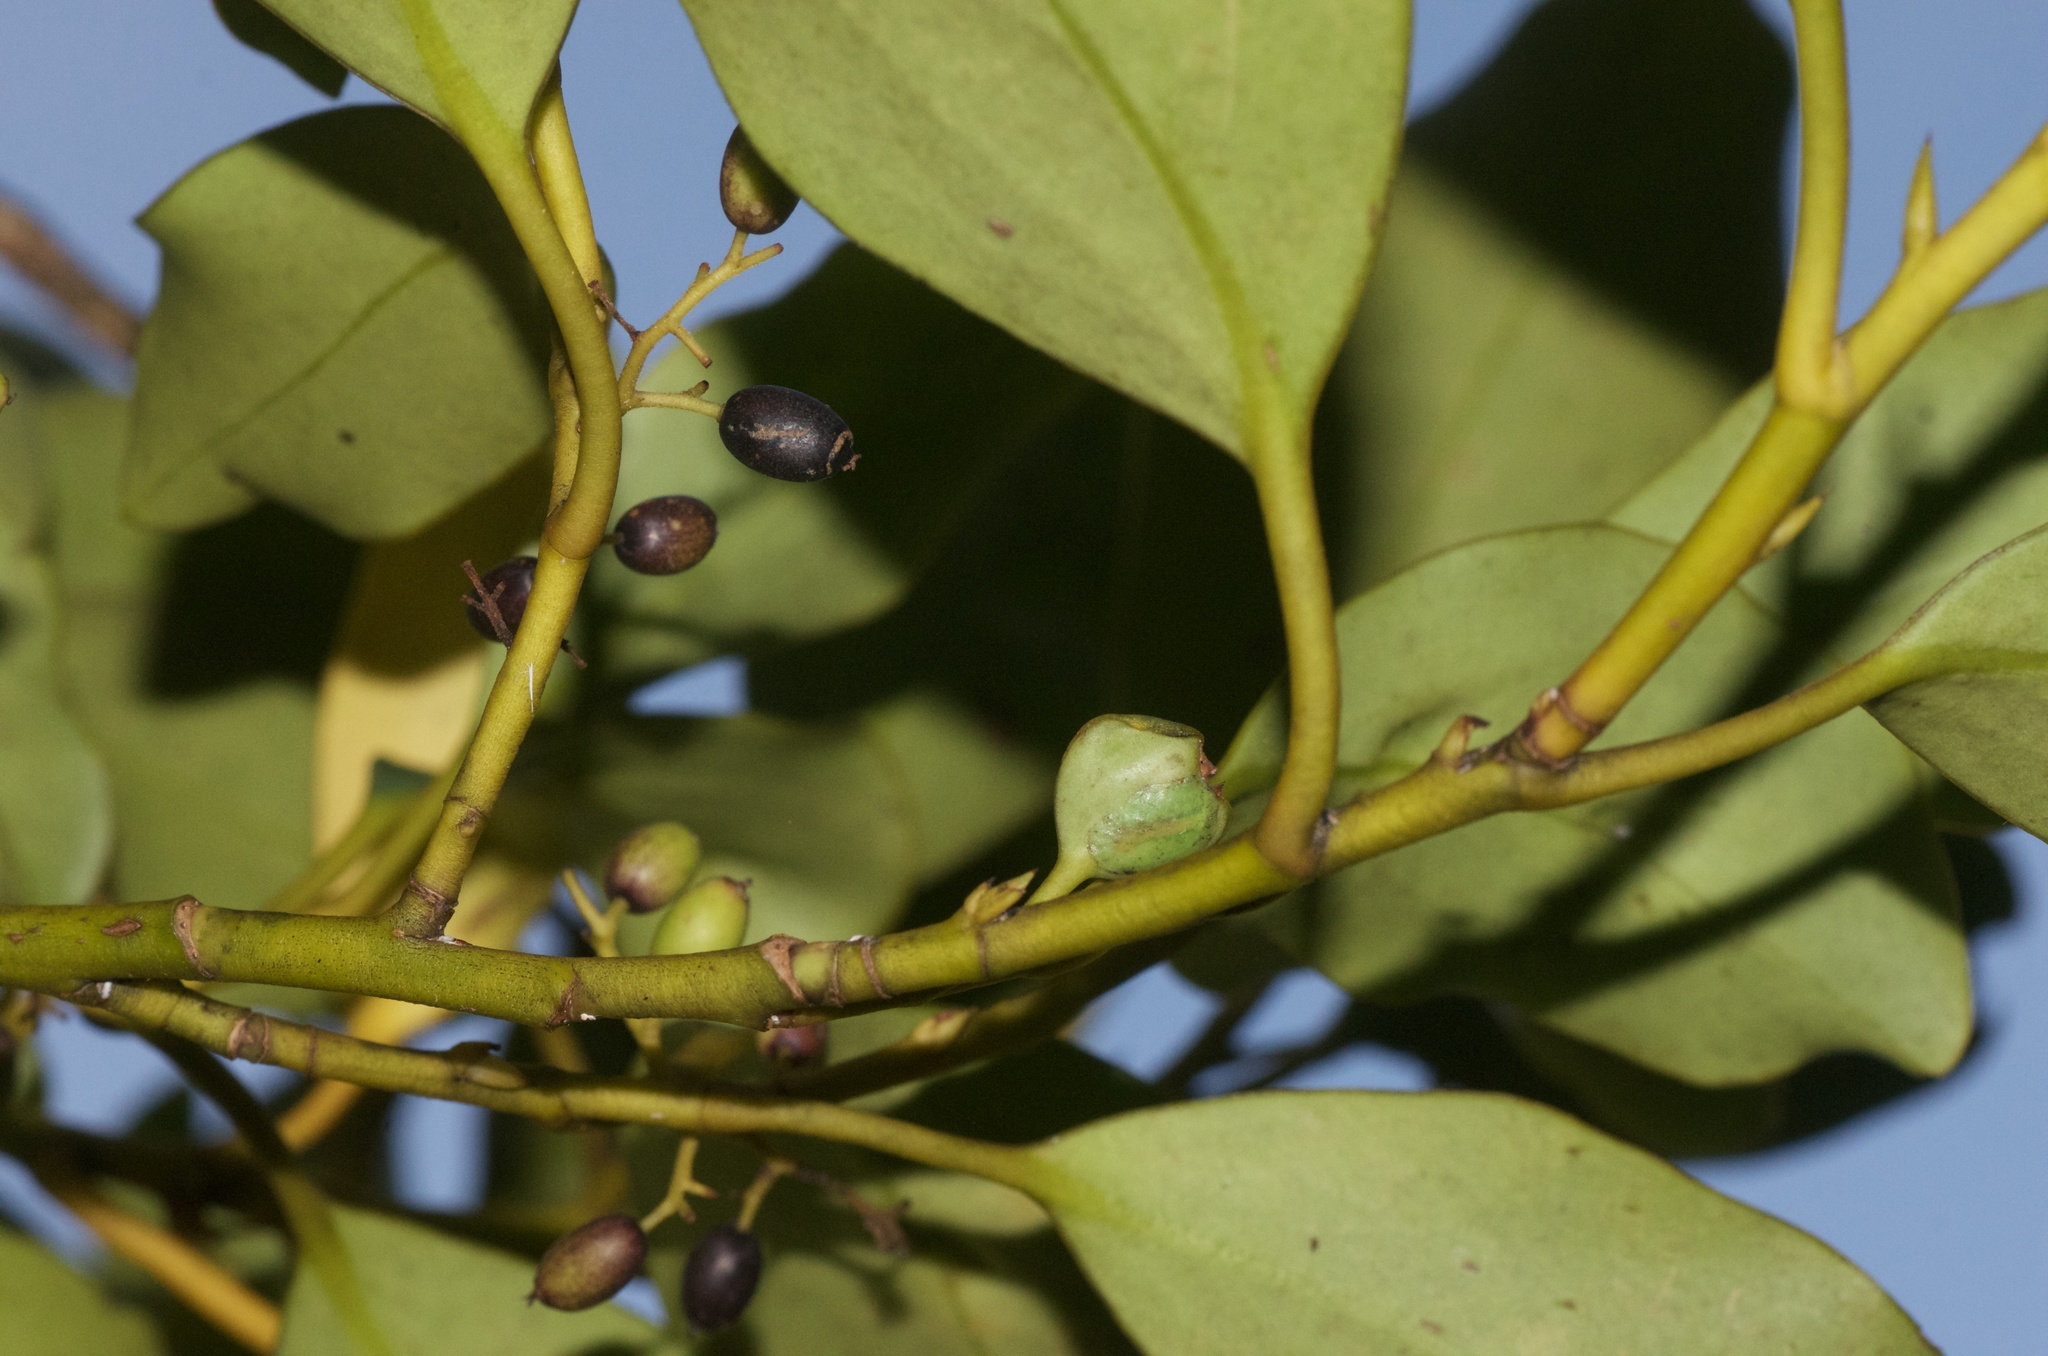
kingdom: Plantae
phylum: Tracheophyta
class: Magnoliopsida
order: Apiales
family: Griseliniaceae
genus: Griselinia
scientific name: Griselinia littoralis
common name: New zealand broadleaf
